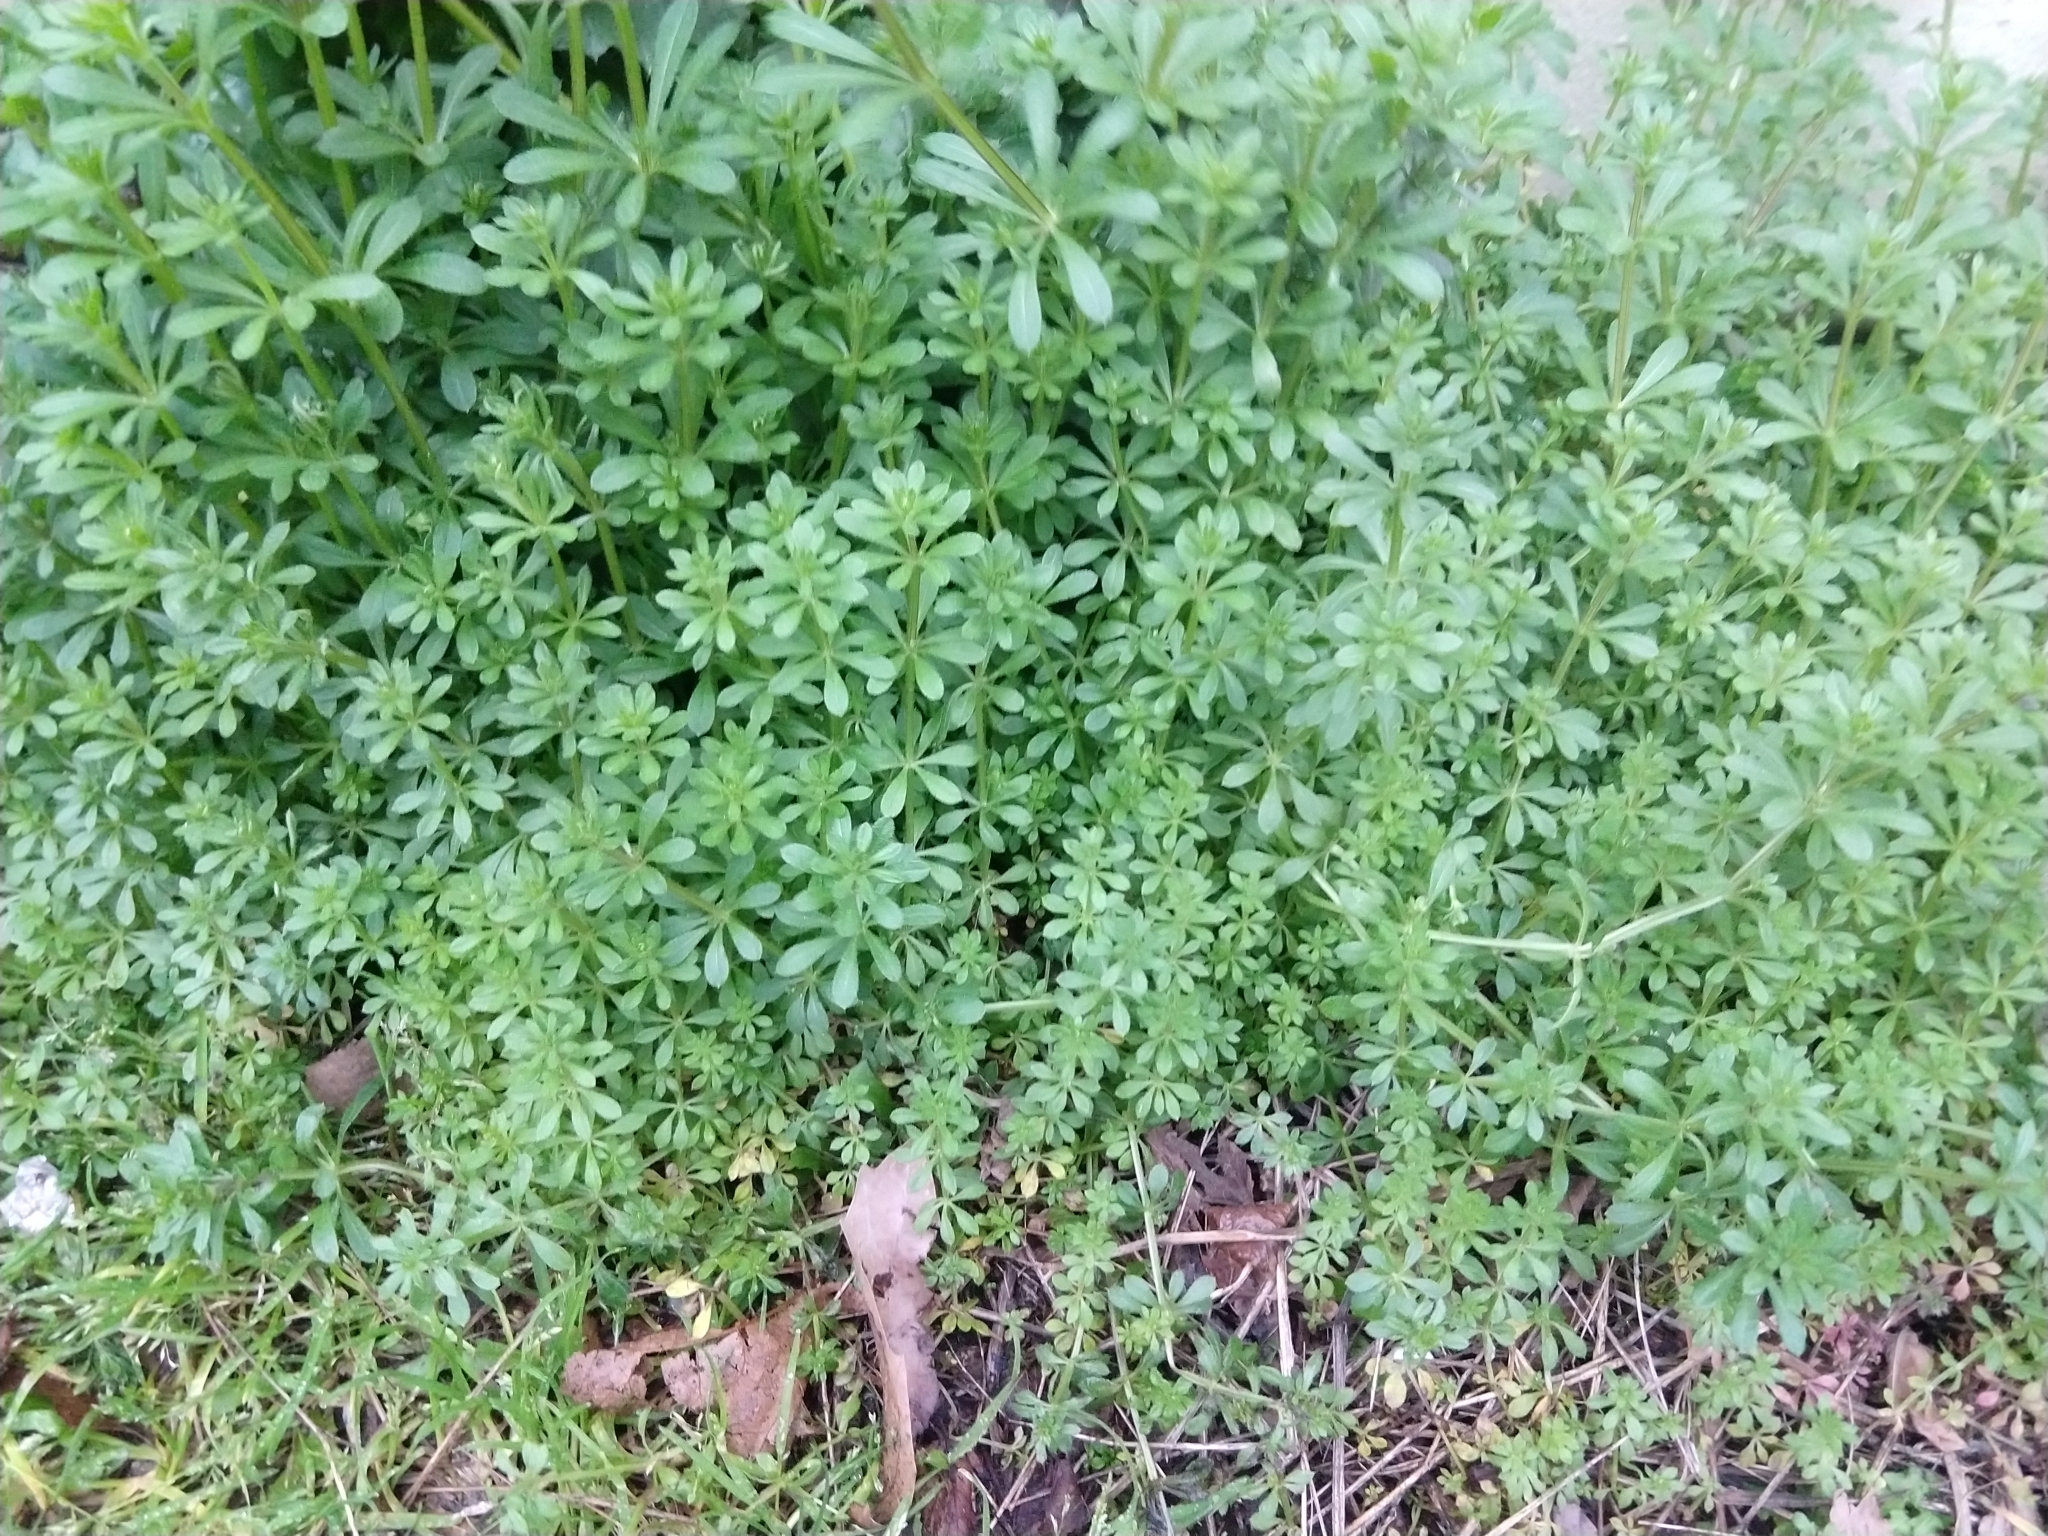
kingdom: Plantae
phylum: Tracheophyta
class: Magnoliopsida
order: Gentianales
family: Rubiaceae
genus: Galium
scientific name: Galium aparine
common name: Cleavers
